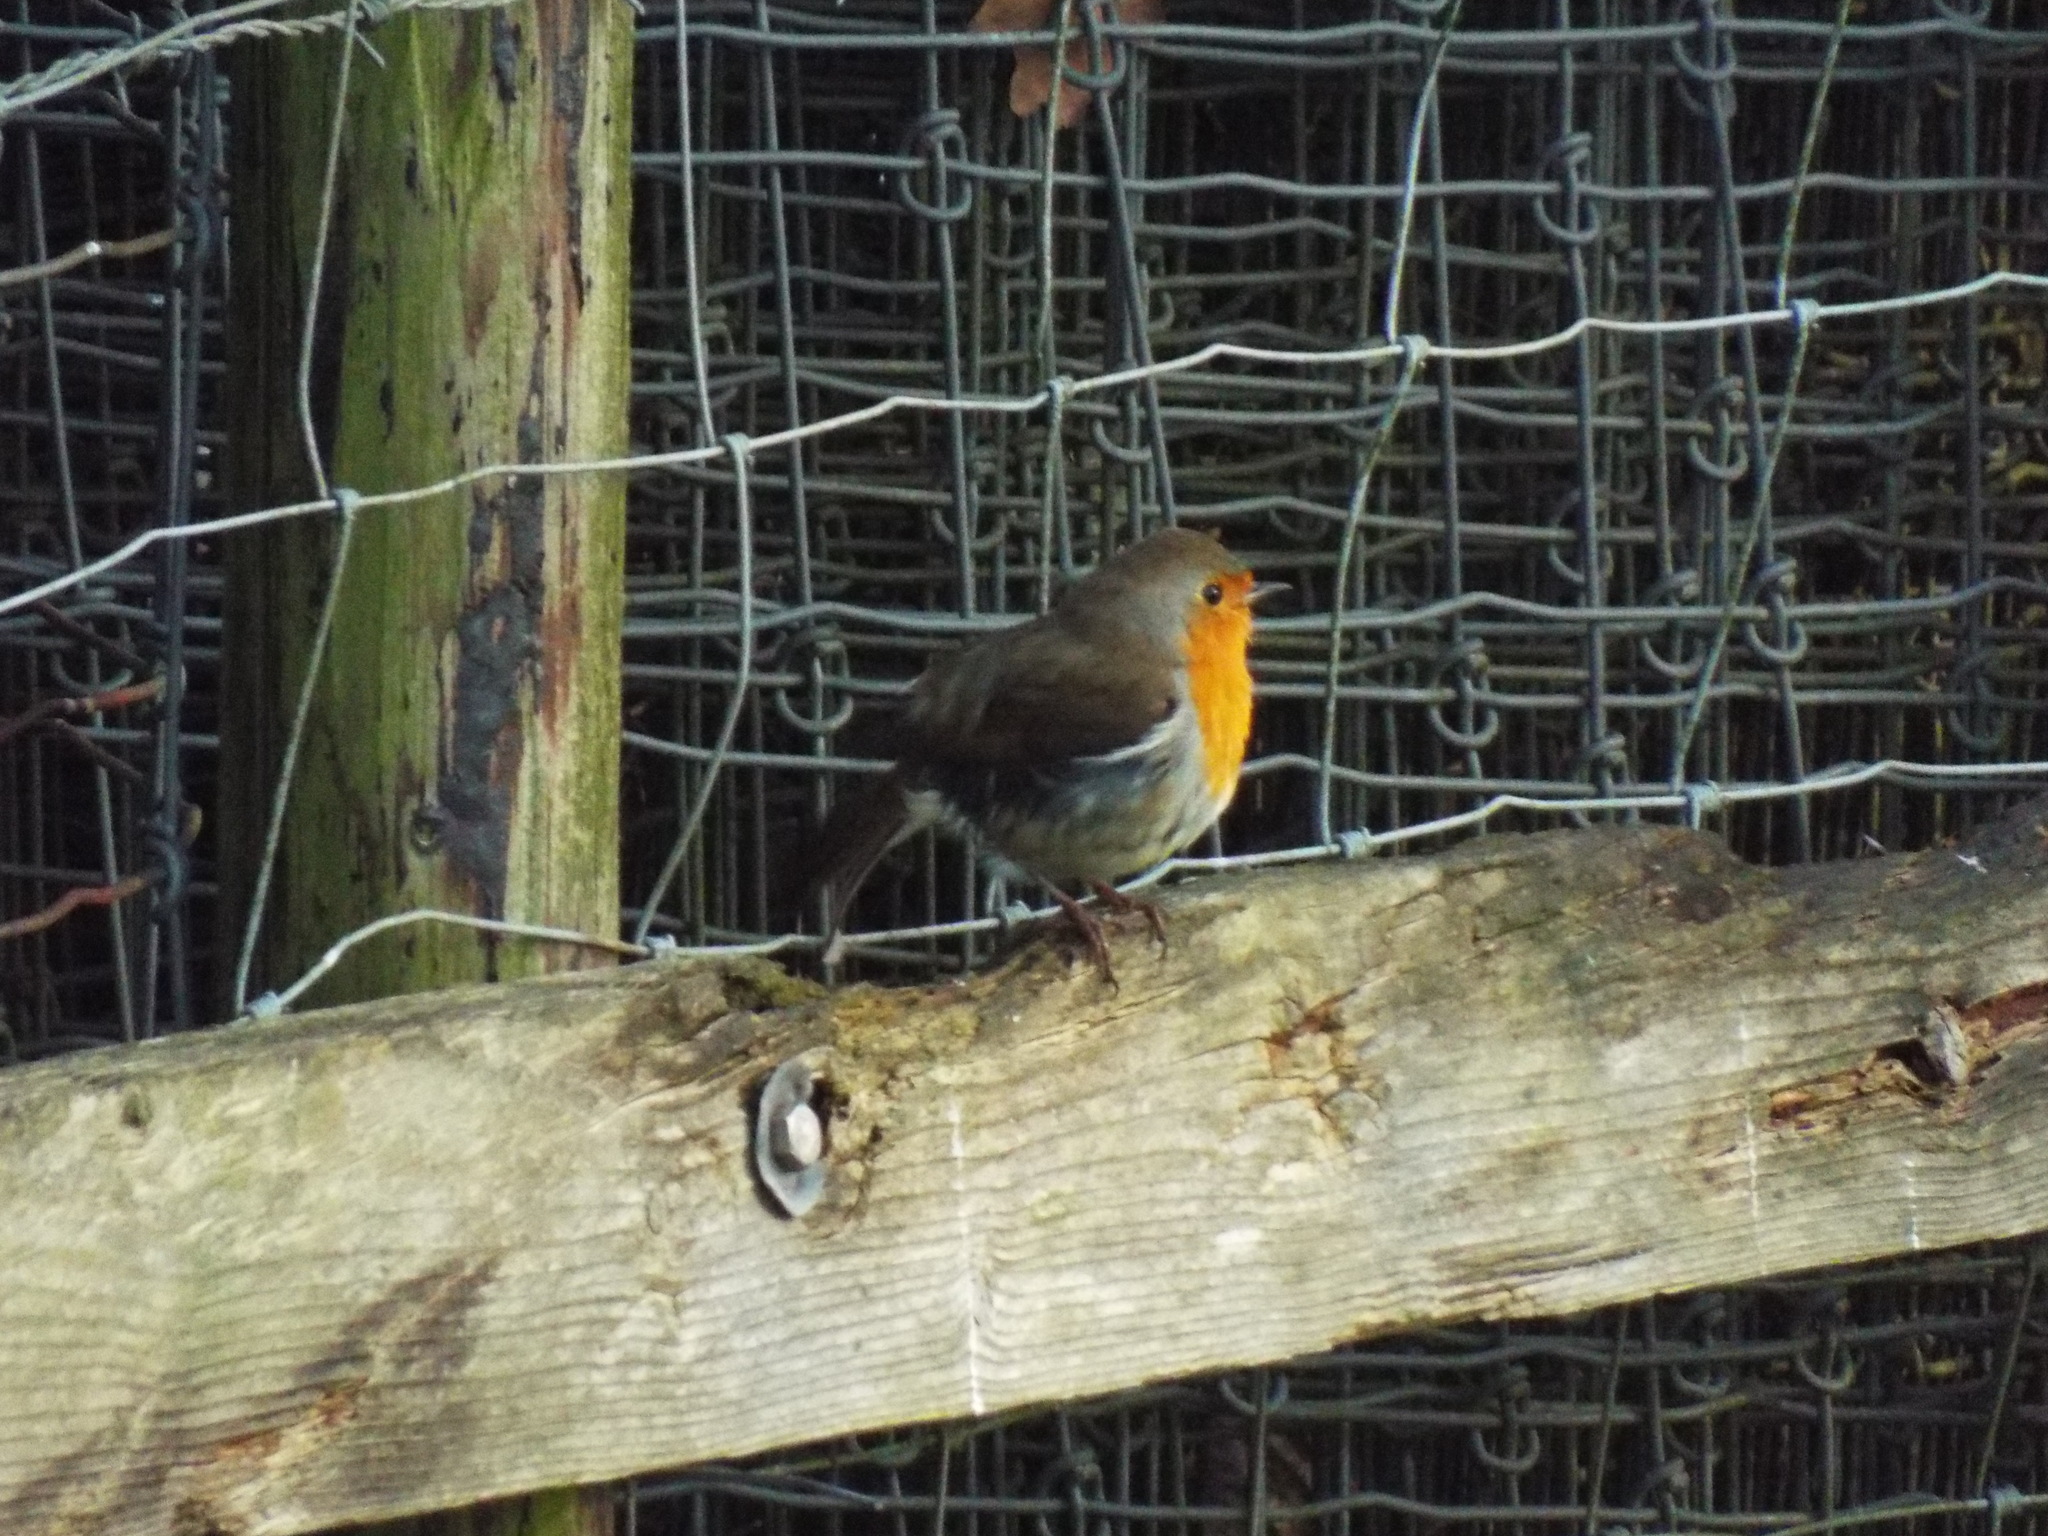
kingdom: Animalia
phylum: Chordata
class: Aves
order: Passeriformes
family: Muscicapidae
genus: Erithacus
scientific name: Erithacus rubecula
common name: European robin
